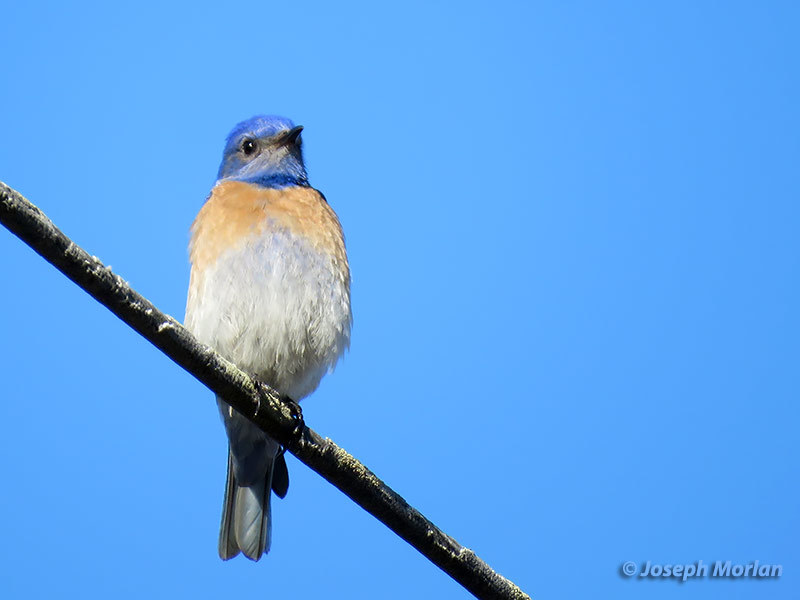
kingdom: Animalia
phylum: Chordata
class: Aves
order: Passeriformes
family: Turdidae
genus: Sialia
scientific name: Sialia mexicana
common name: Western bluebird
